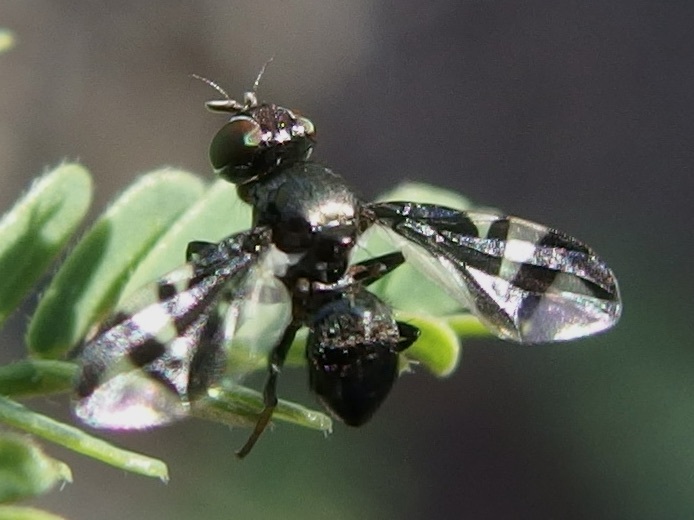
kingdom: Animalia
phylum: Arthropoda
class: Insecta
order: Diptera
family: Platystomatidae
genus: Rivellia
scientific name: Rivellia wulpiana
